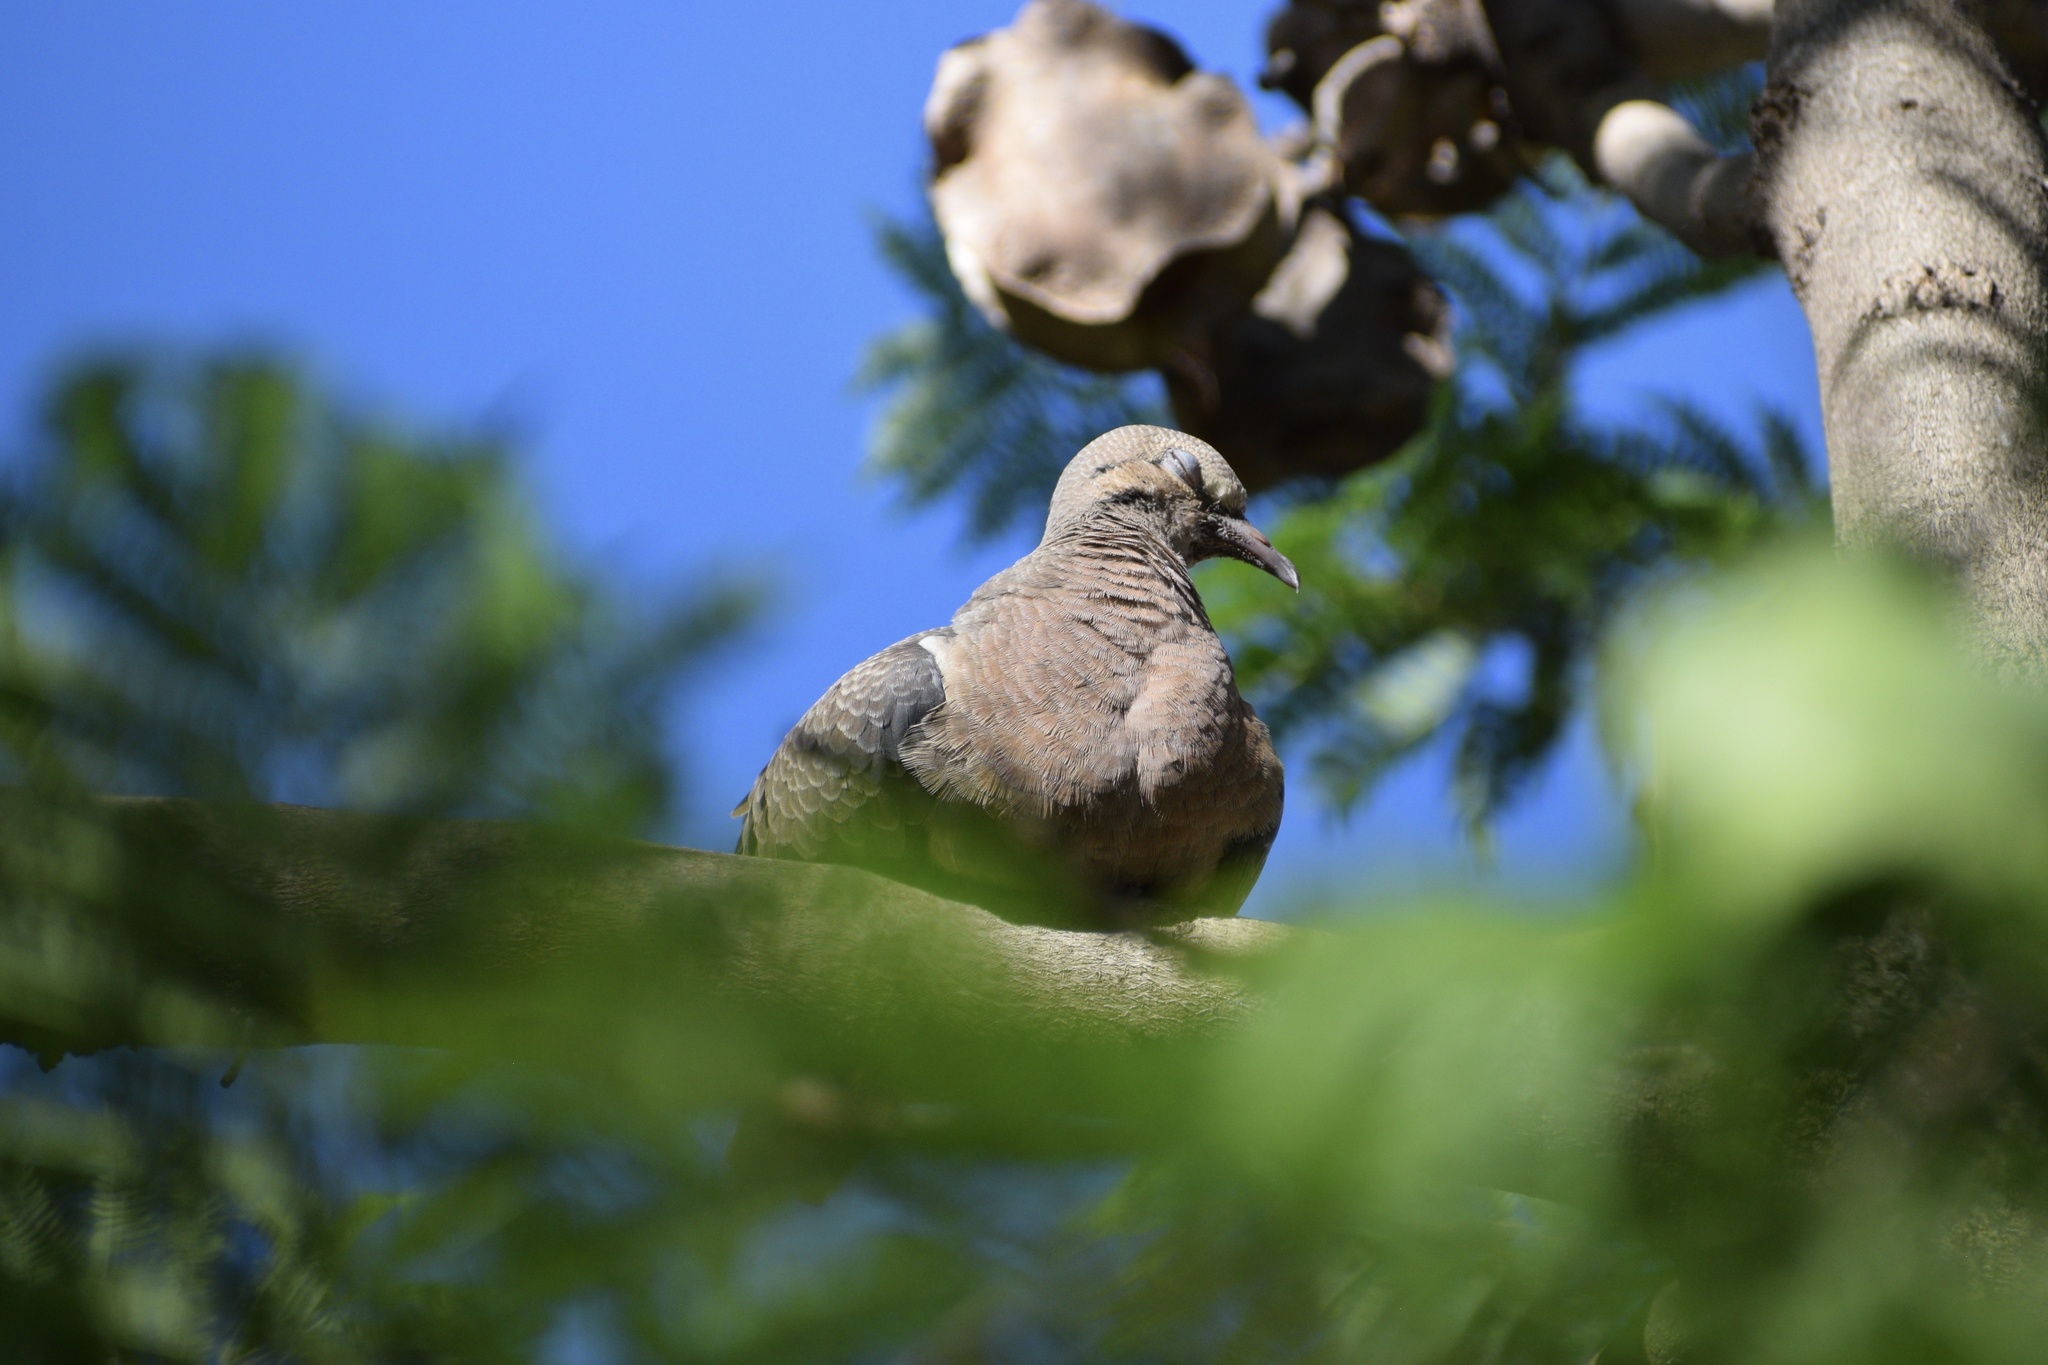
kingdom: Animalia
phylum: Chordata
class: Aves
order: Columbiformes
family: Columbidae
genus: Zenaida
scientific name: Zenaida auriculata
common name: Eared dove
